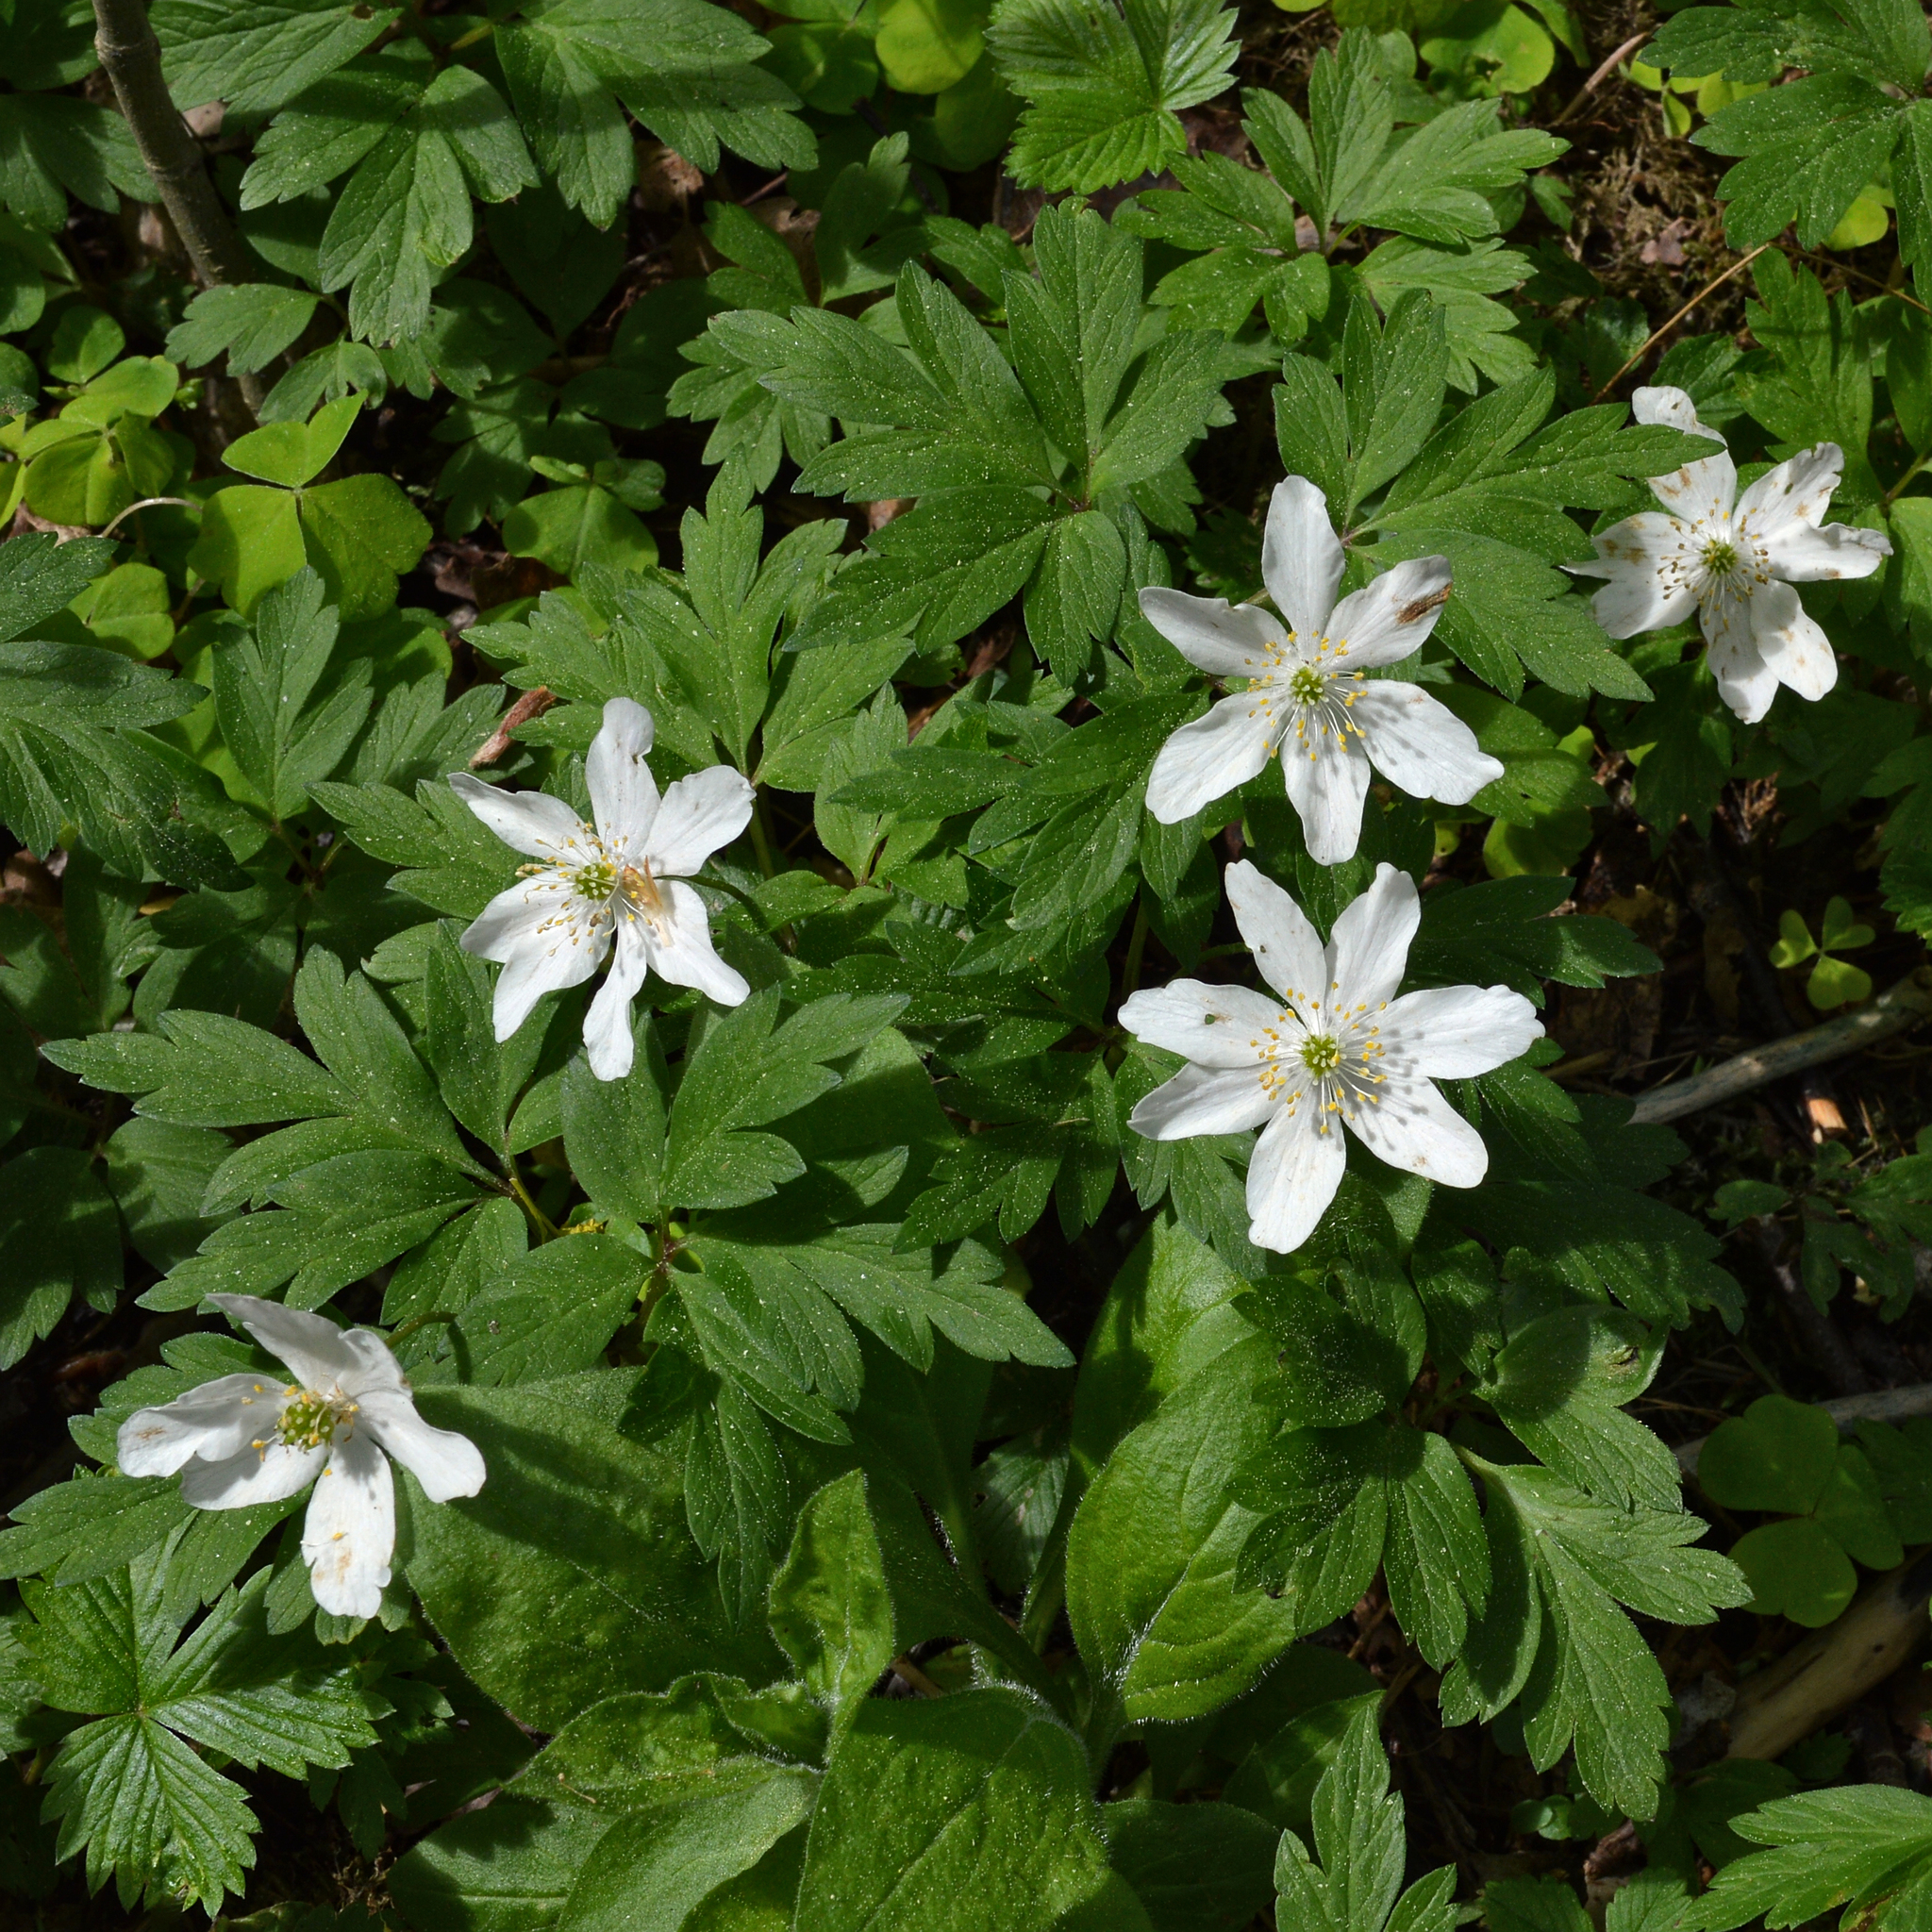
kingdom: Plantae
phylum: Tracheophyta
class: Magnoliopsida
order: Ranunculales
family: Ranunculaceae
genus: Anemone
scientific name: Anemone nemorosa
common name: Wood anemone
